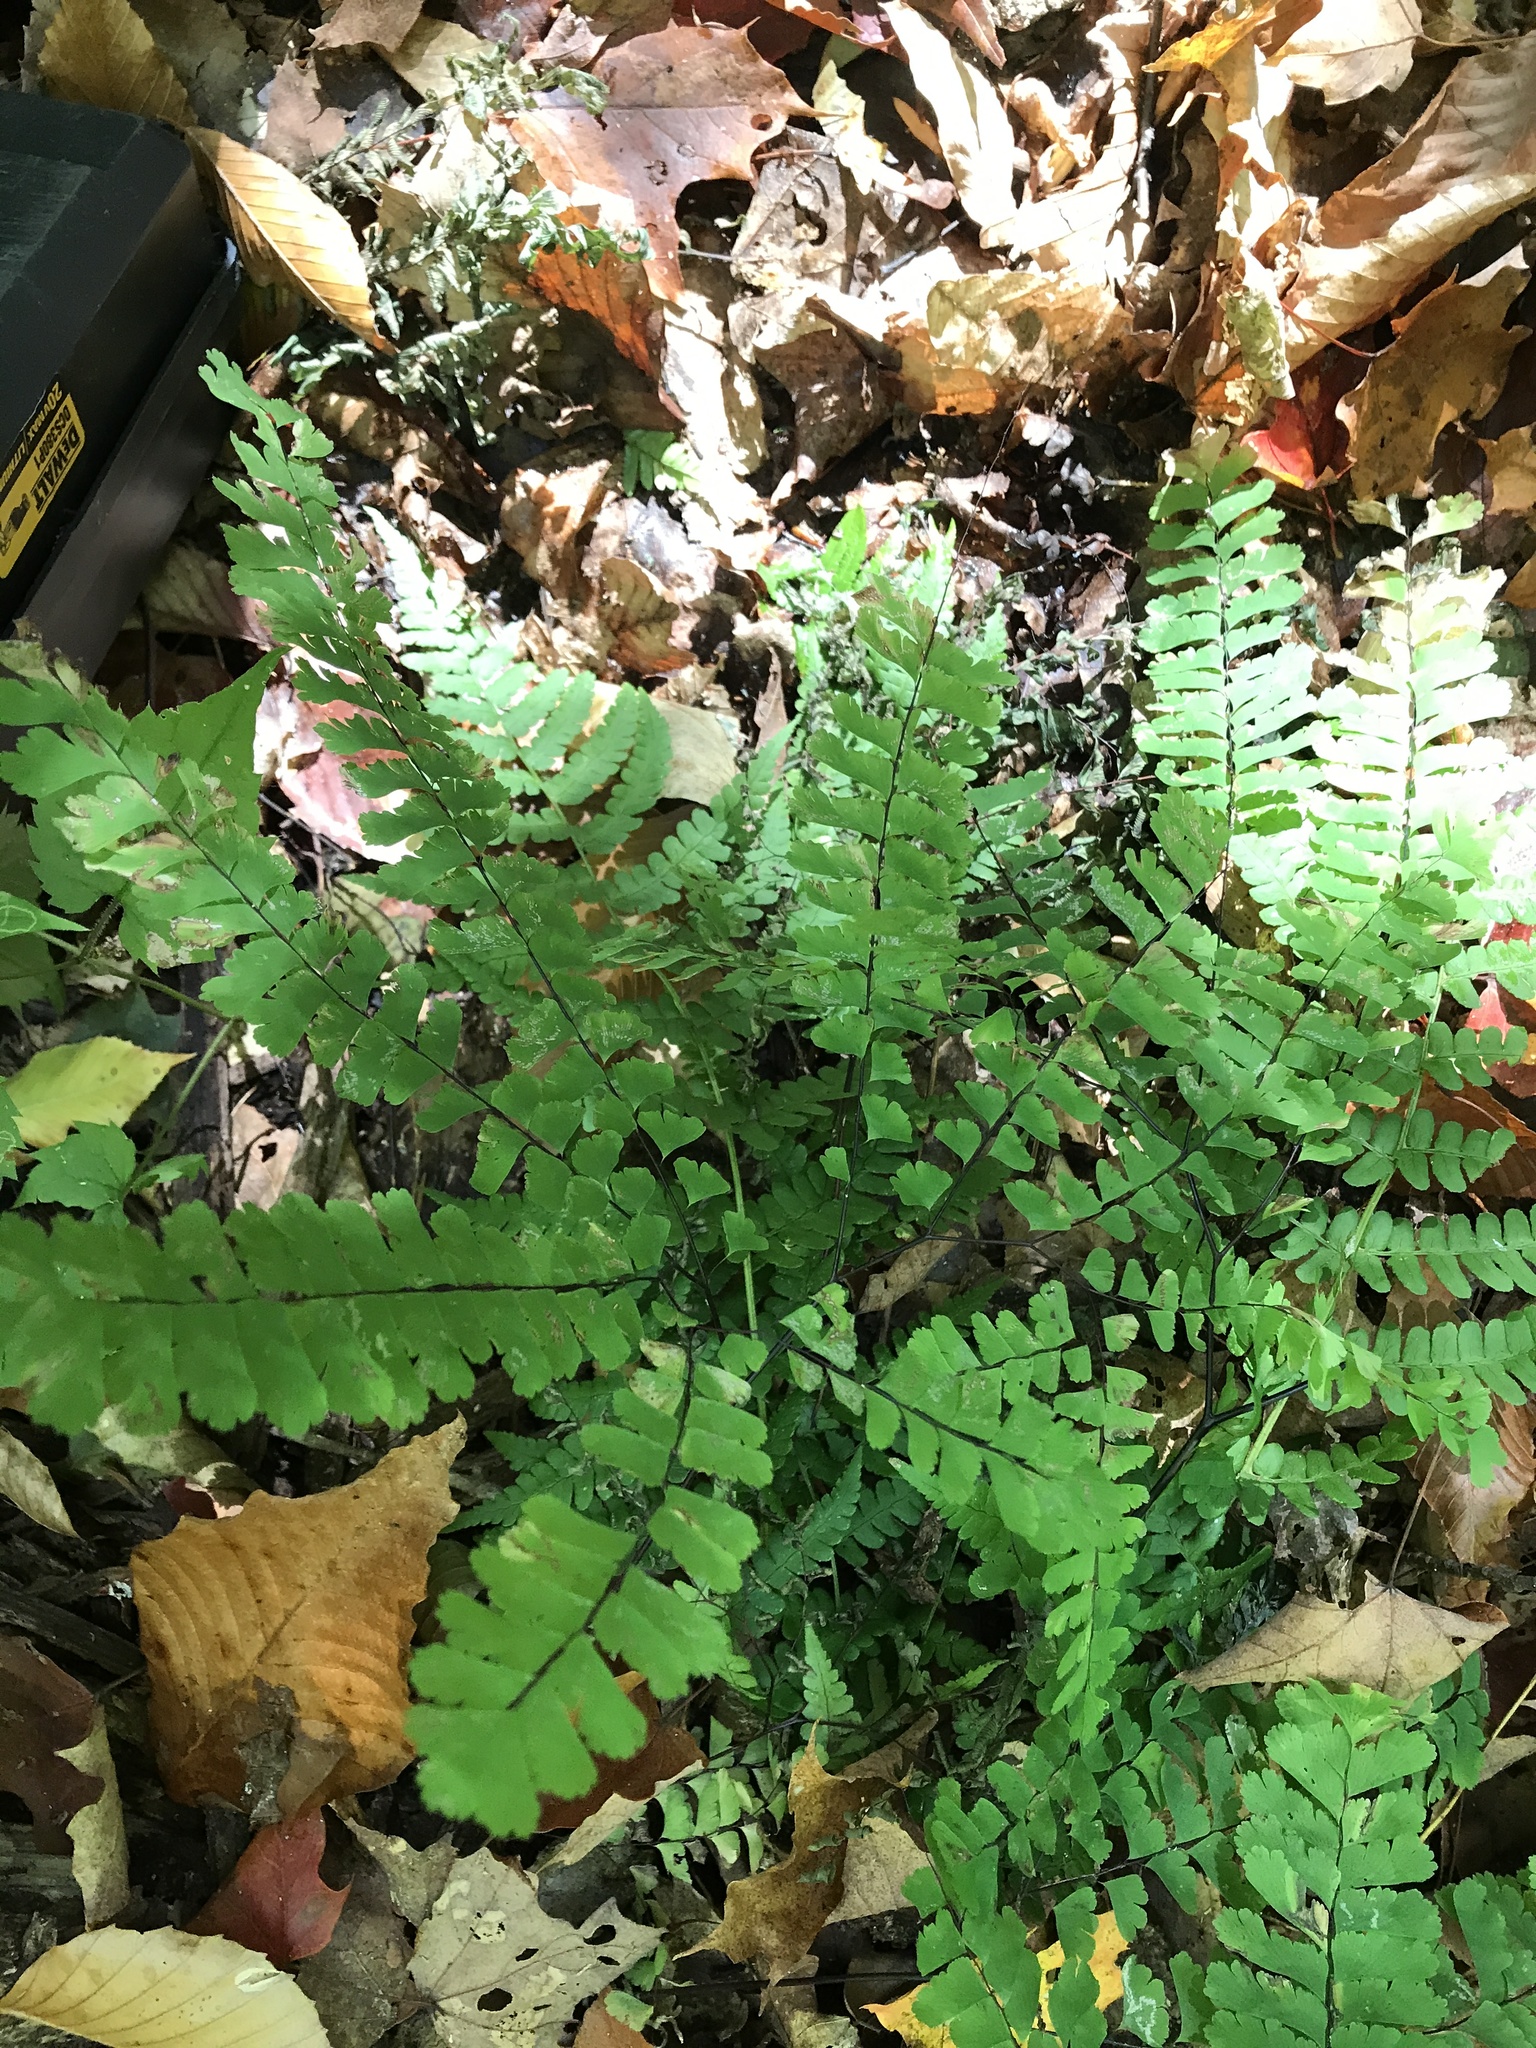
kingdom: Plantae
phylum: Tracheophyta
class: Polypodiopsida
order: Polypodiales
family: Pteridaceae
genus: Adiantum
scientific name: Adiantum pedatum
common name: Five-finger fern
